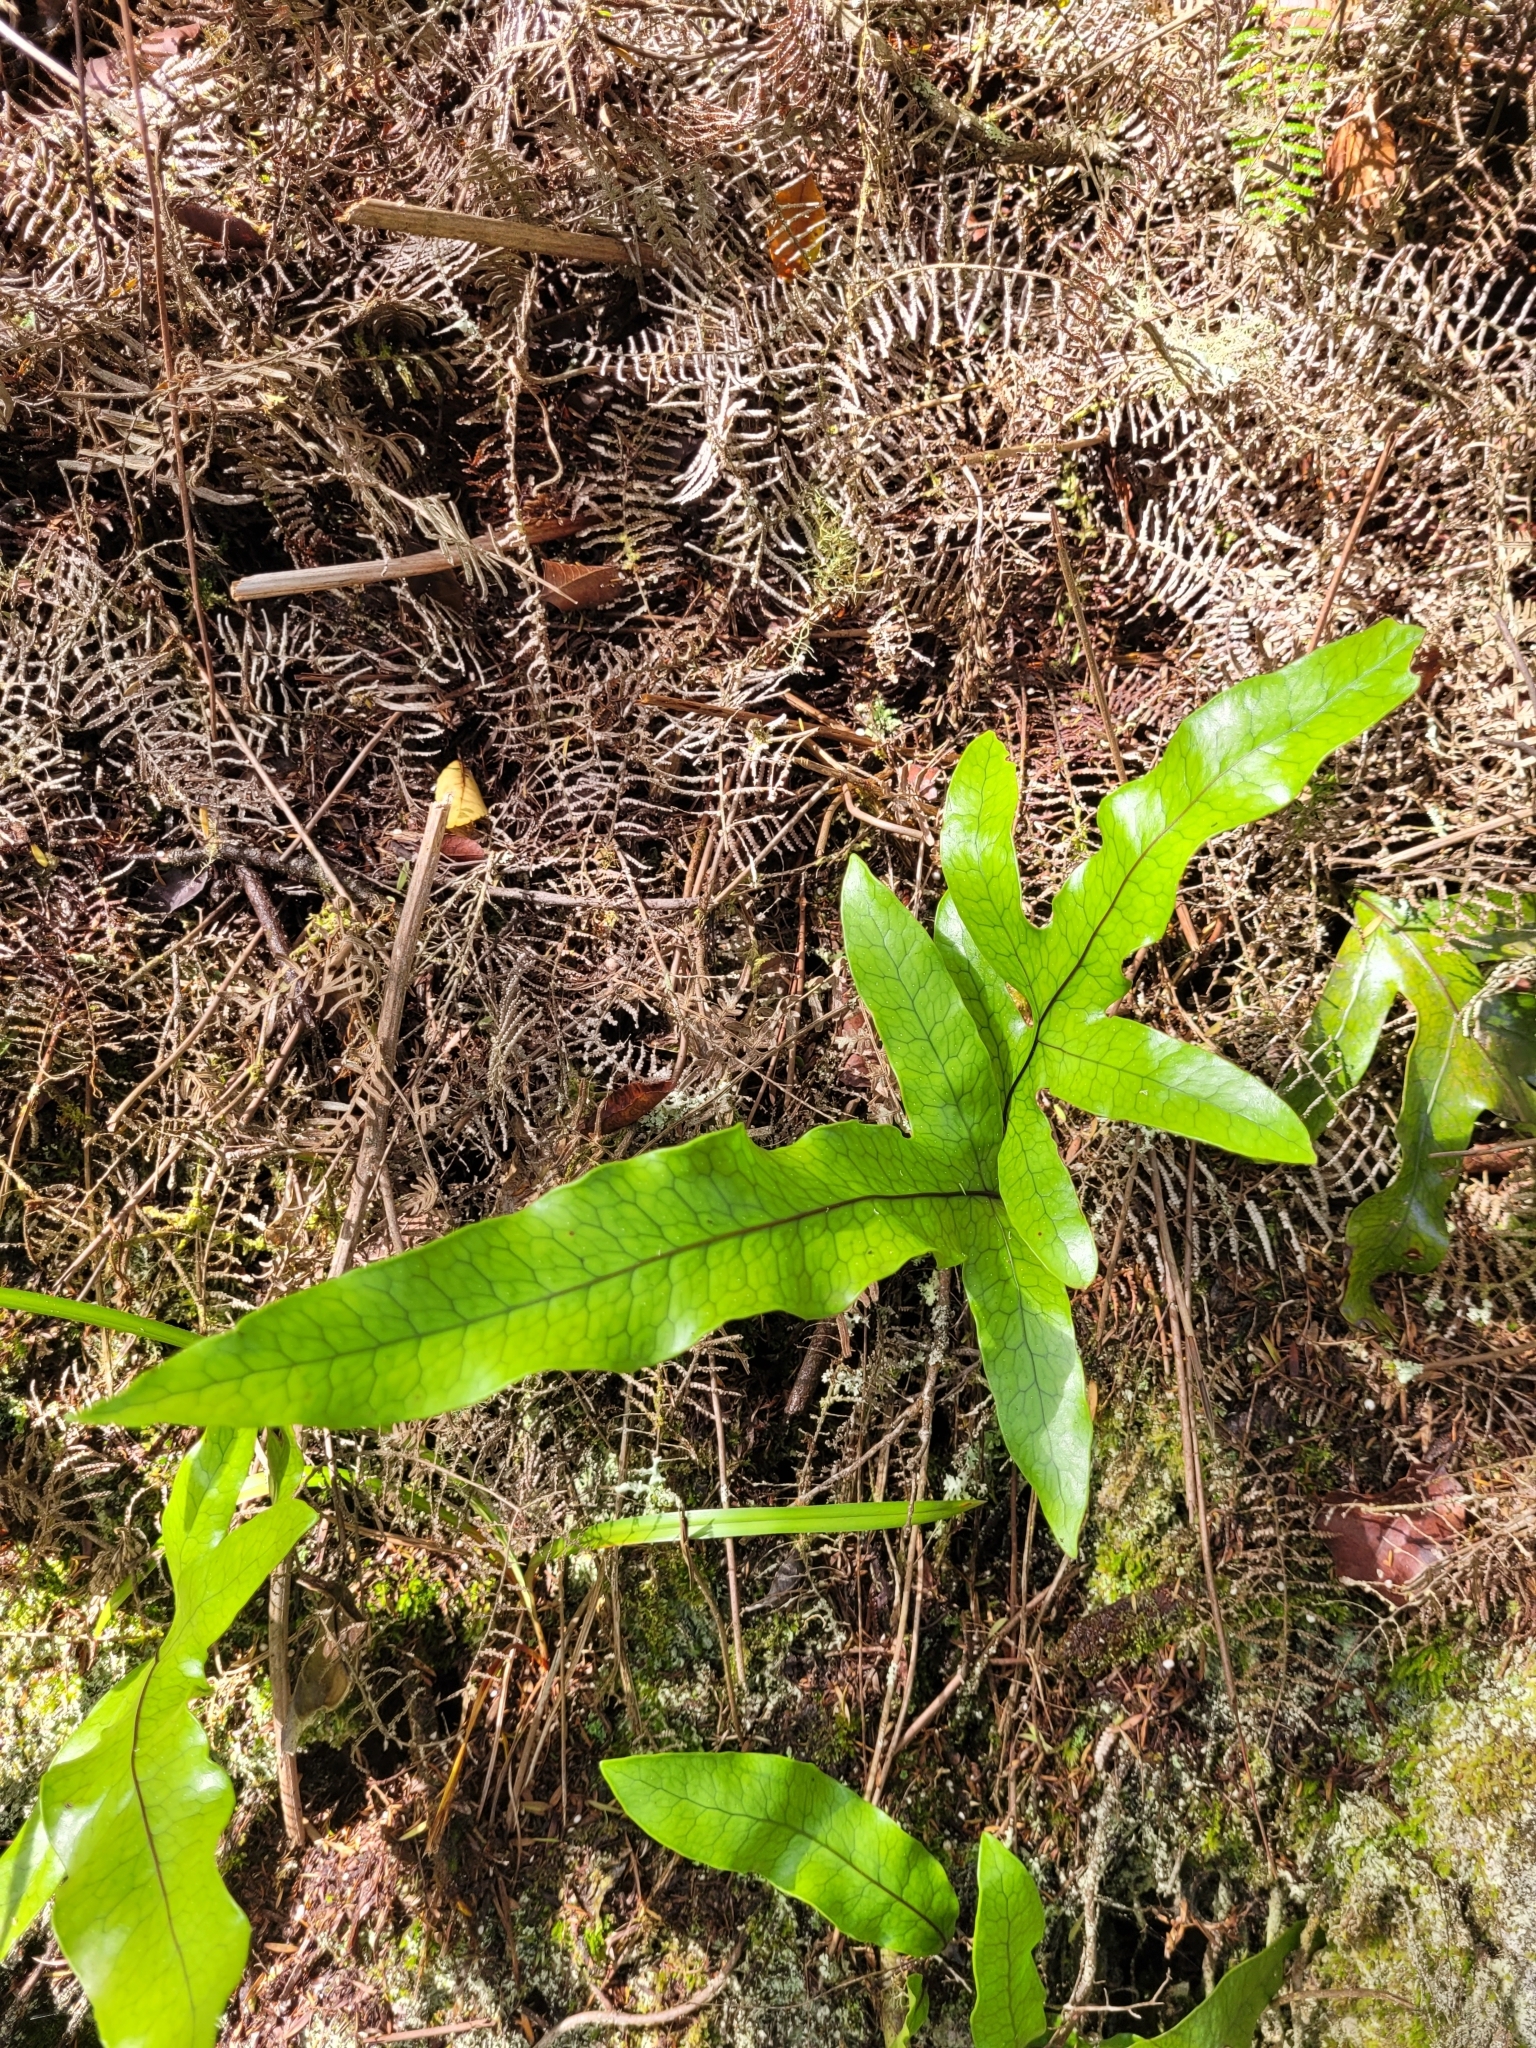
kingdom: Plantae
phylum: Tracheophyta
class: Polypodiopsida
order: Polypodiales
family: Polypodiaceae
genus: Lecanopteris
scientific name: Lecanopteris pustulata
